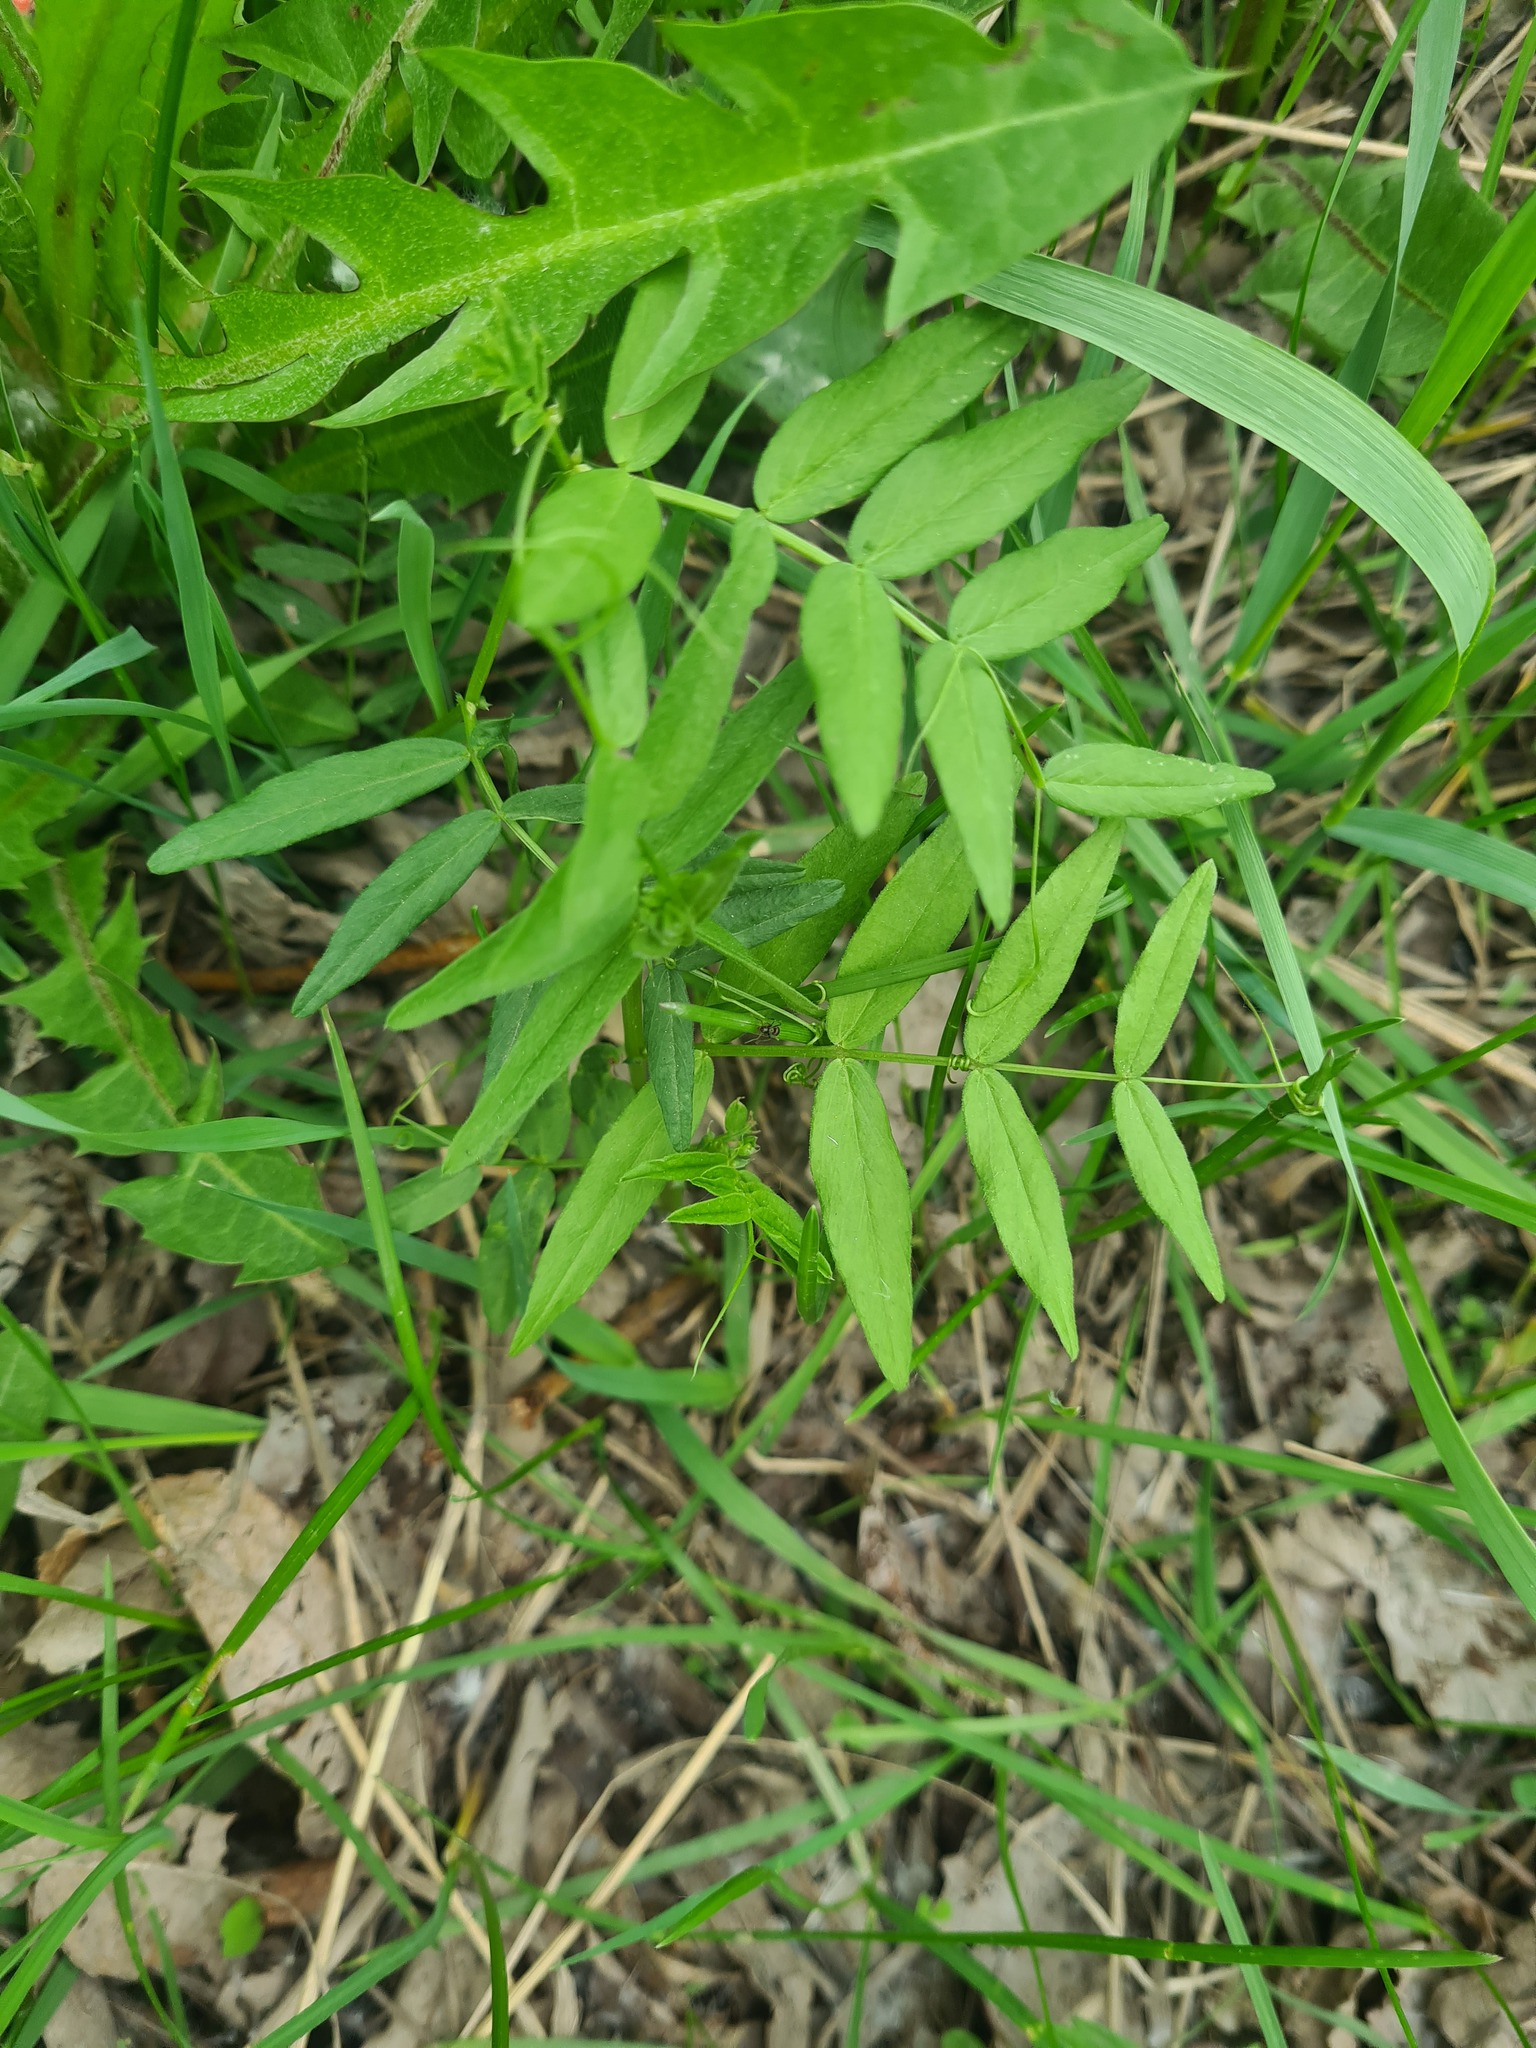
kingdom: Plantae
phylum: Tracheophyta
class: Magnoliopsida
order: Fabales
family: Fabaceae
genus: Vicia
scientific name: Vicia sepium
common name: Bush vetch
